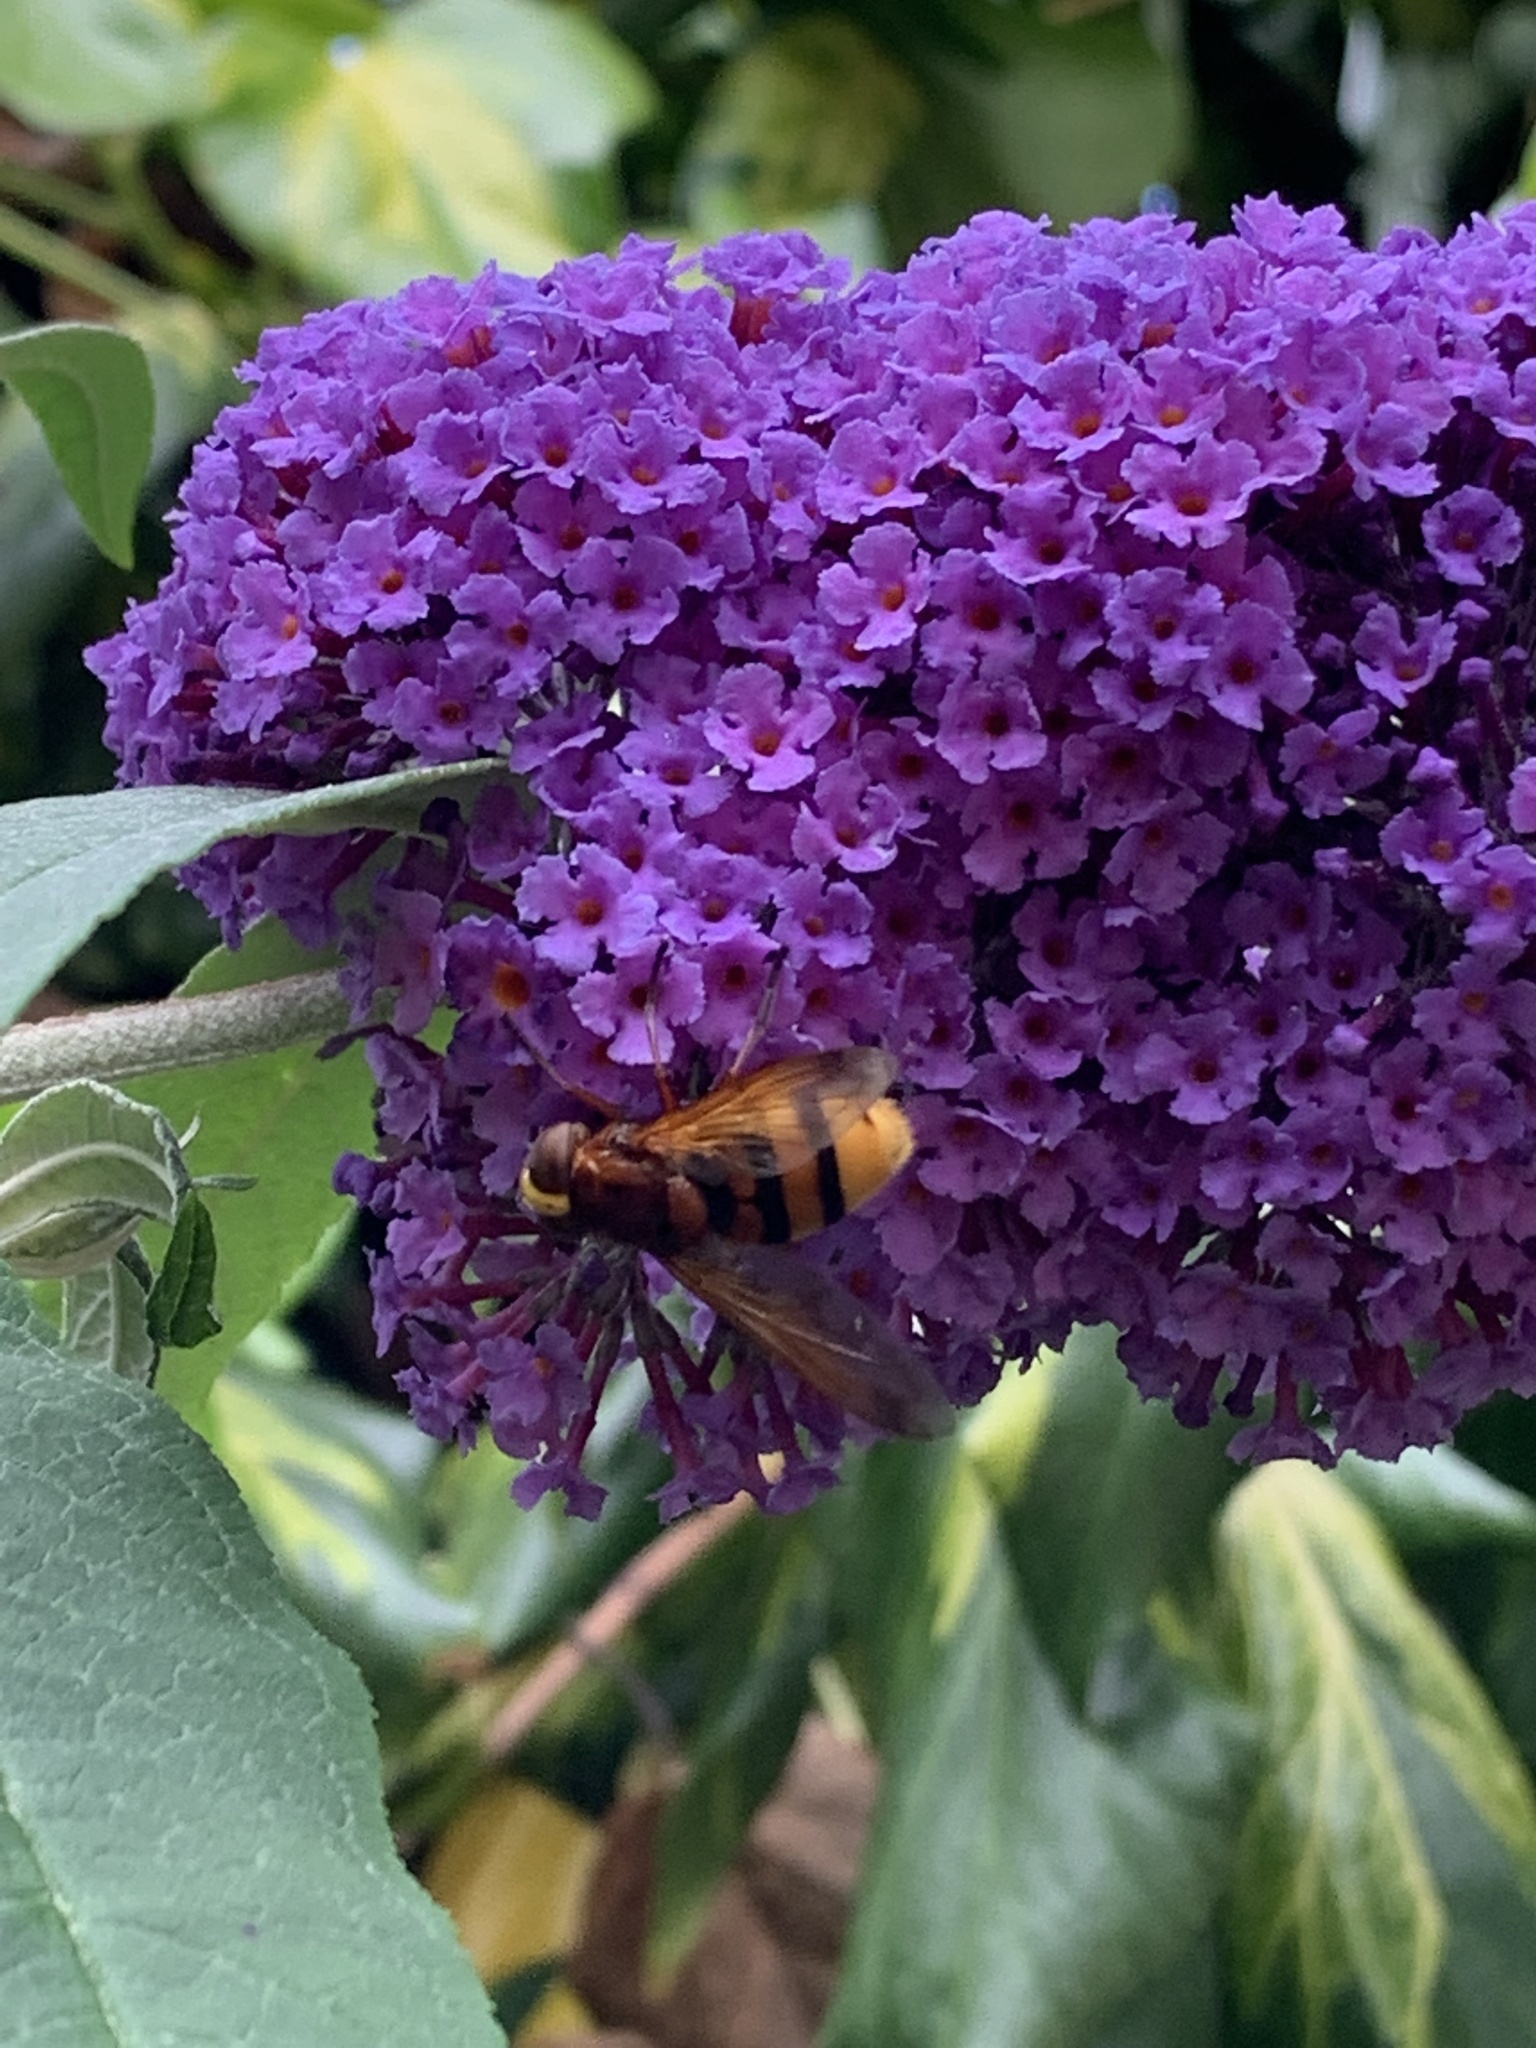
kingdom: Animalia
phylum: Arthropoda
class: Insecta
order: Diptera
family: Syrphidae
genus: Volucella
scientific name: Volucella zonaria
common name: Hornet hoverfly
